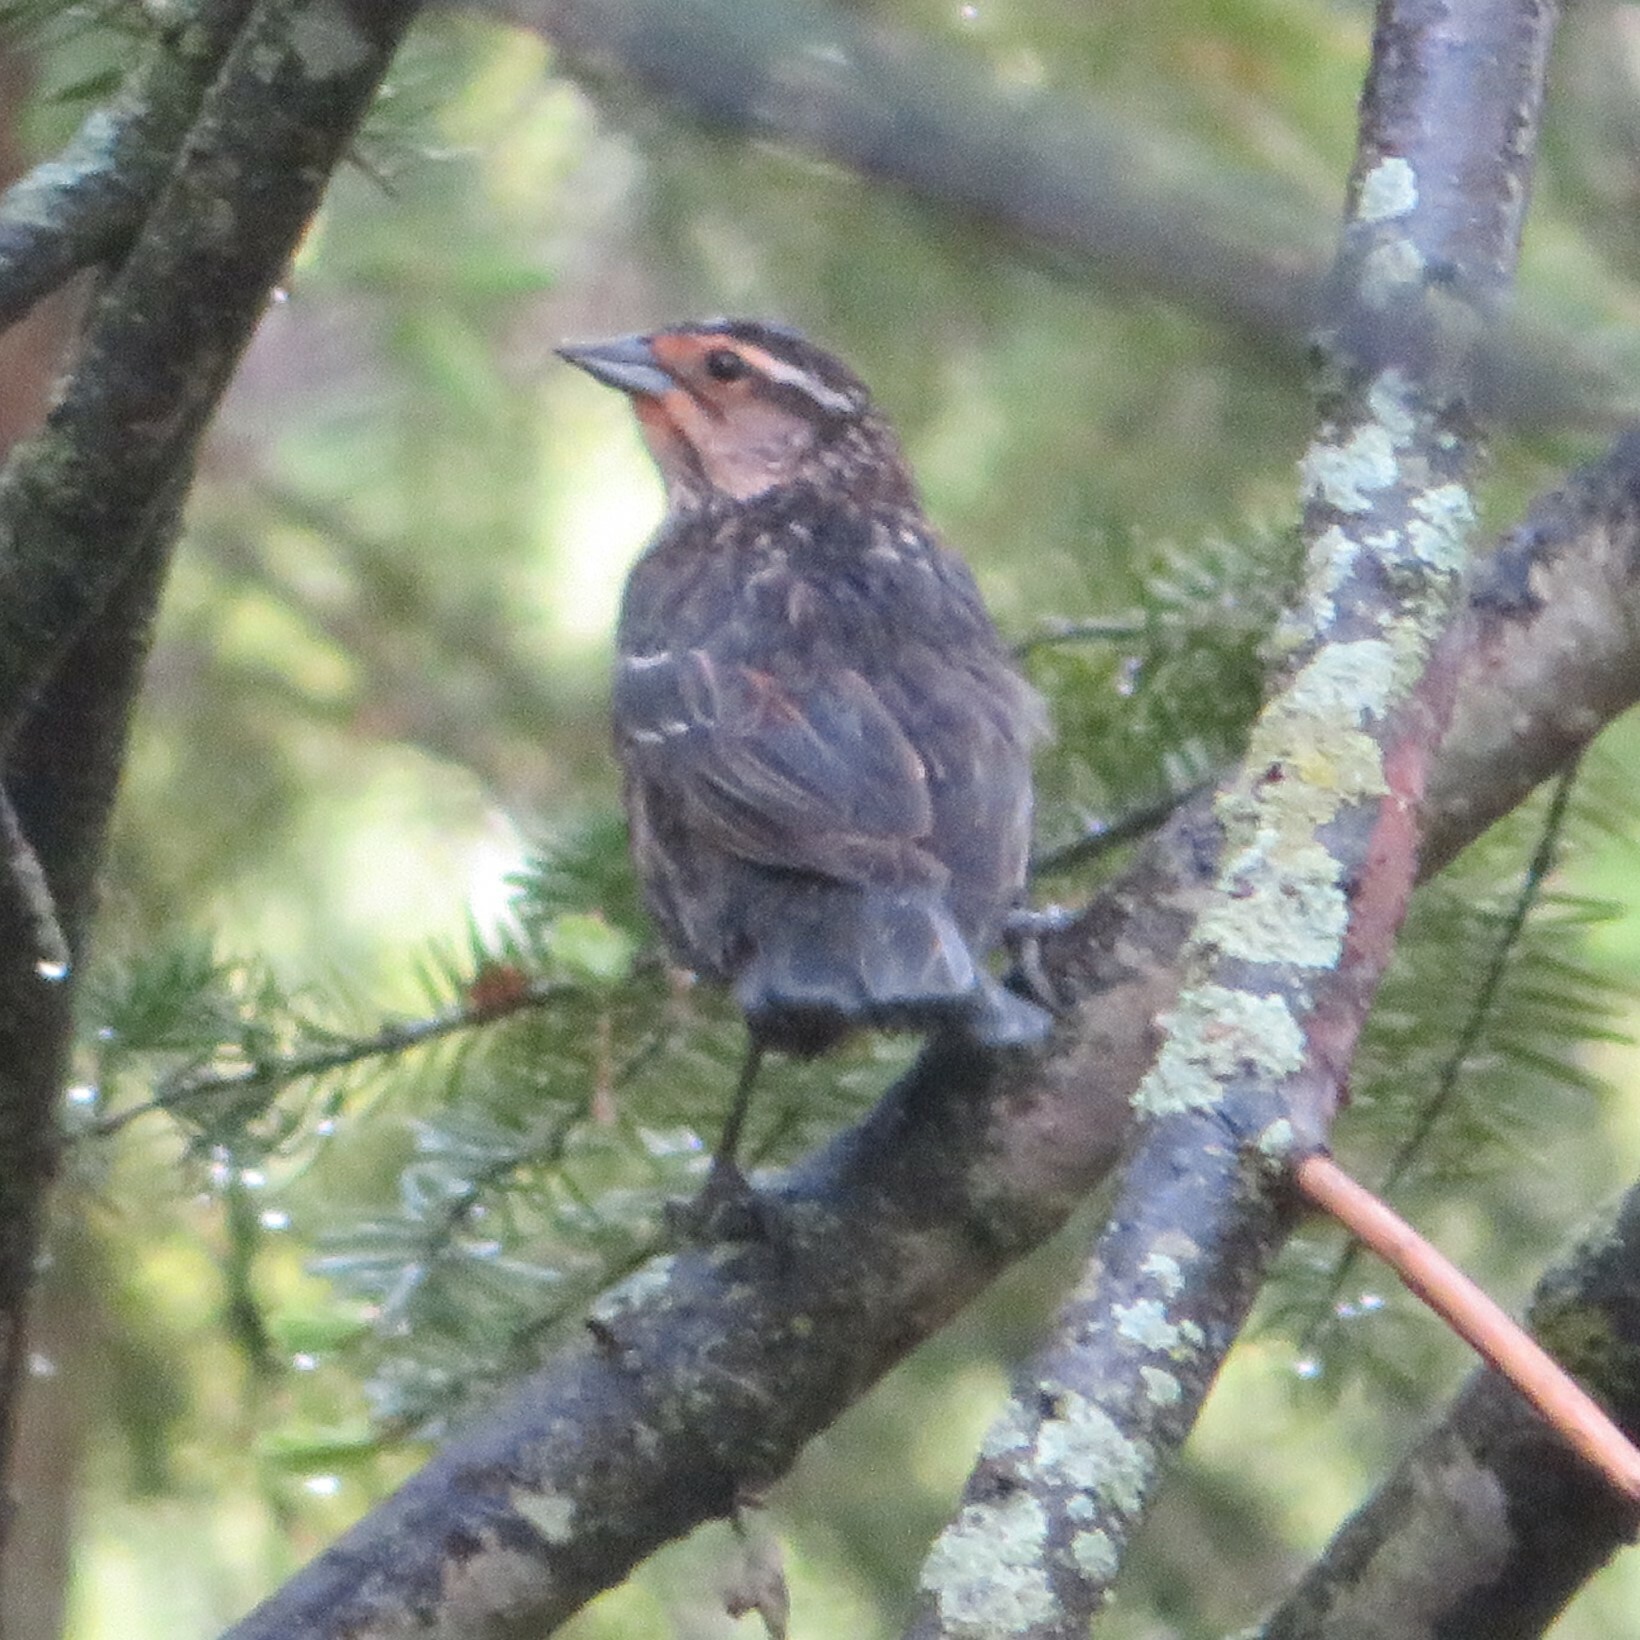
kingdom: Animalia
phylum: Chordata
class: Aves
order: Passeriformes
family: Icteridae
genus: Agelaius
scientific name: Agelaius phoeniceus
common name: Red-winged blackbird
